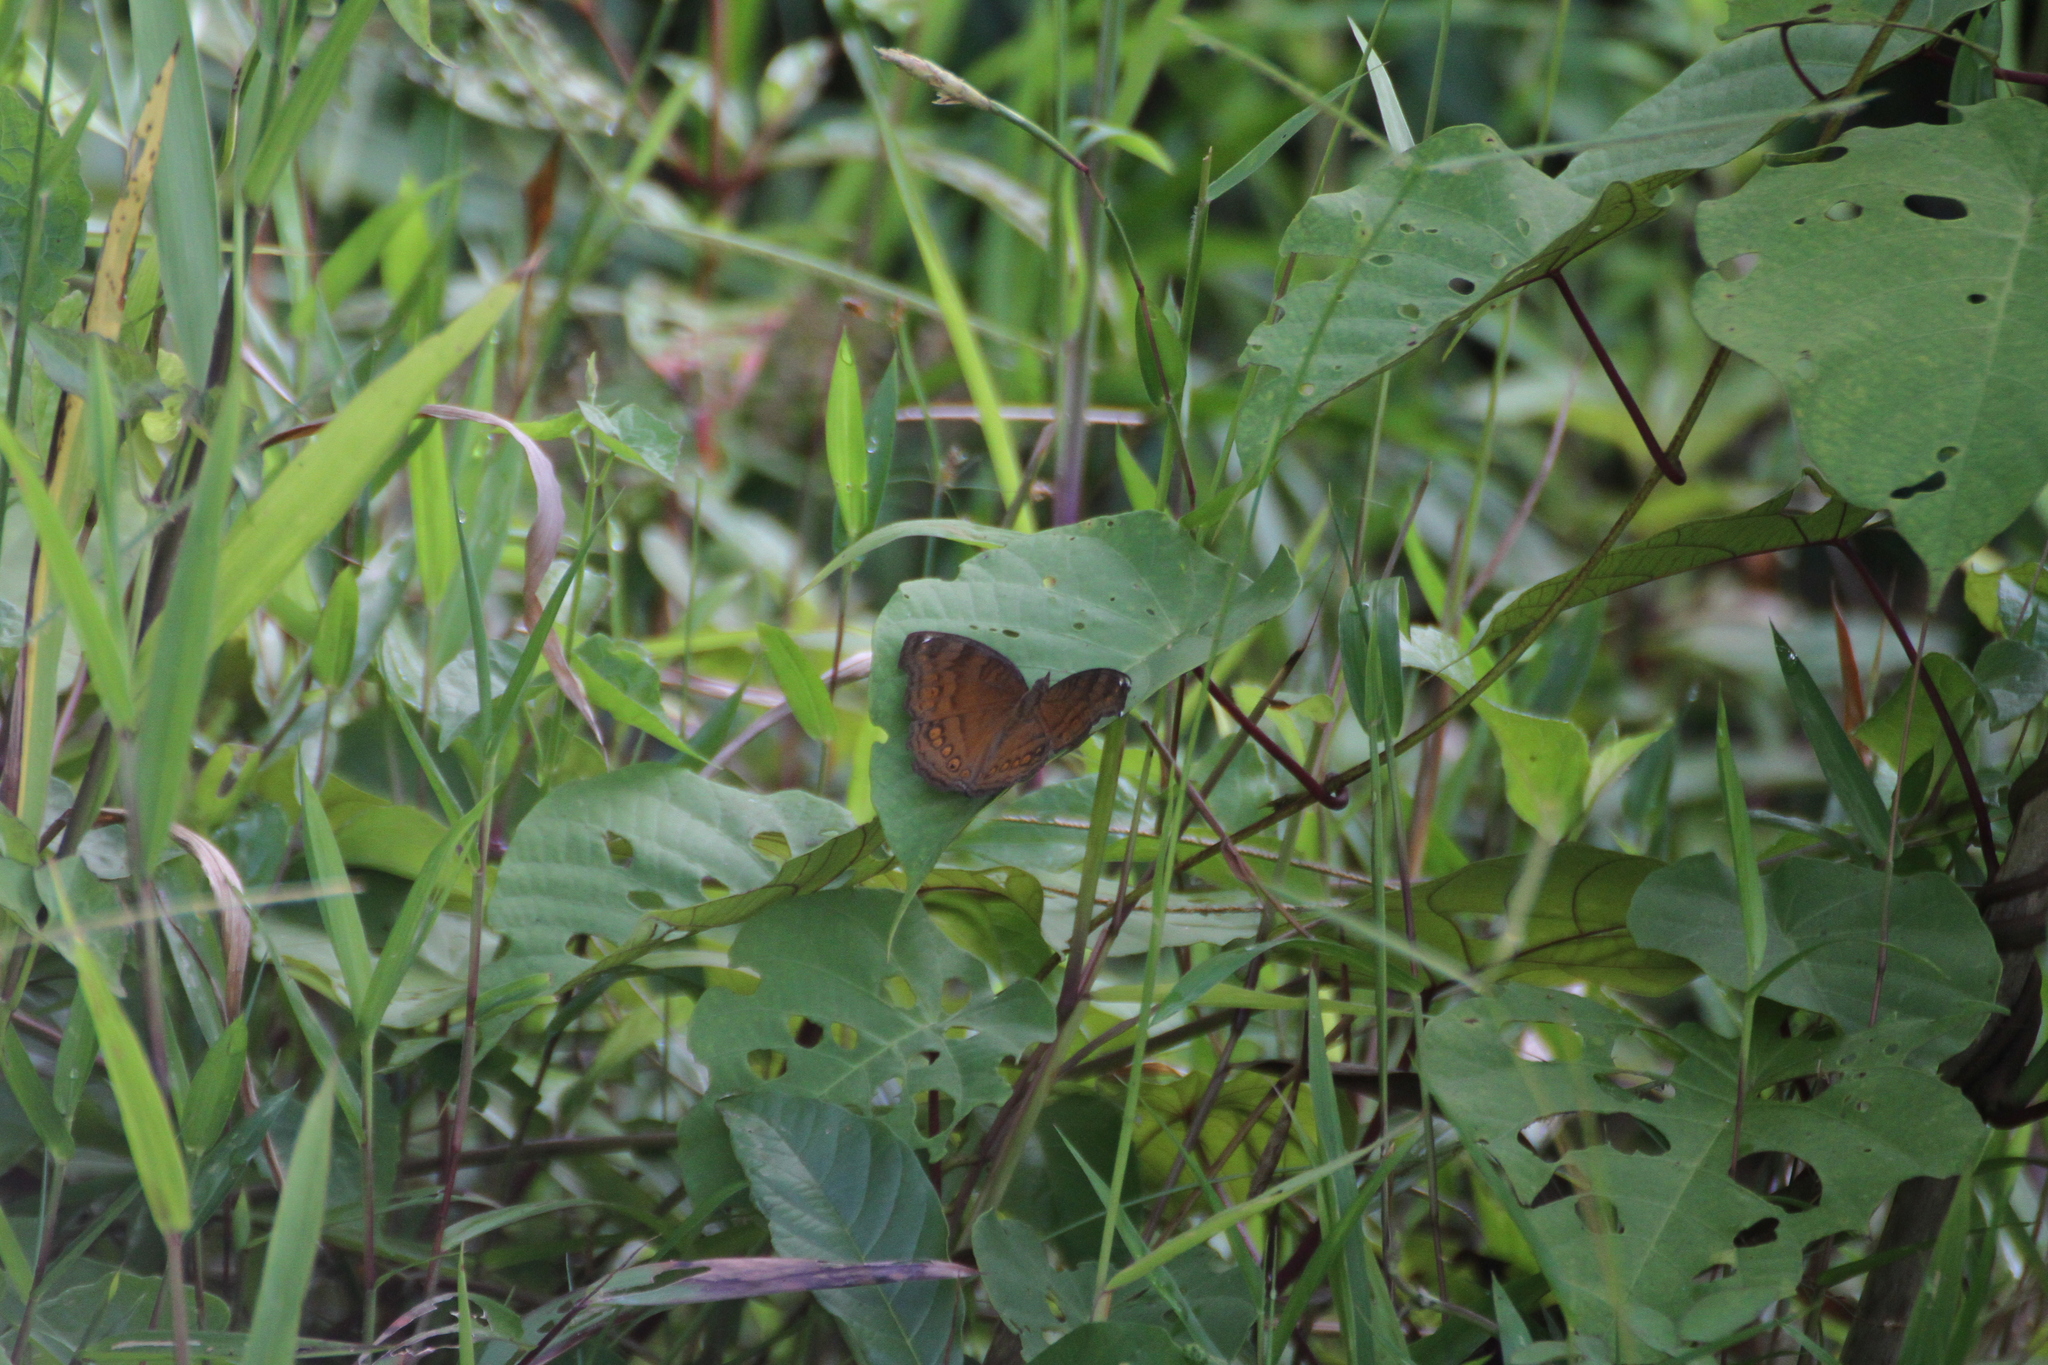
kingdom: Animalia
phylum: Arthropoda
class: Insecta
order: Lepidoptera
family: Nymphalidae
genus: Junonia
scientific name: Junonia hedonia
